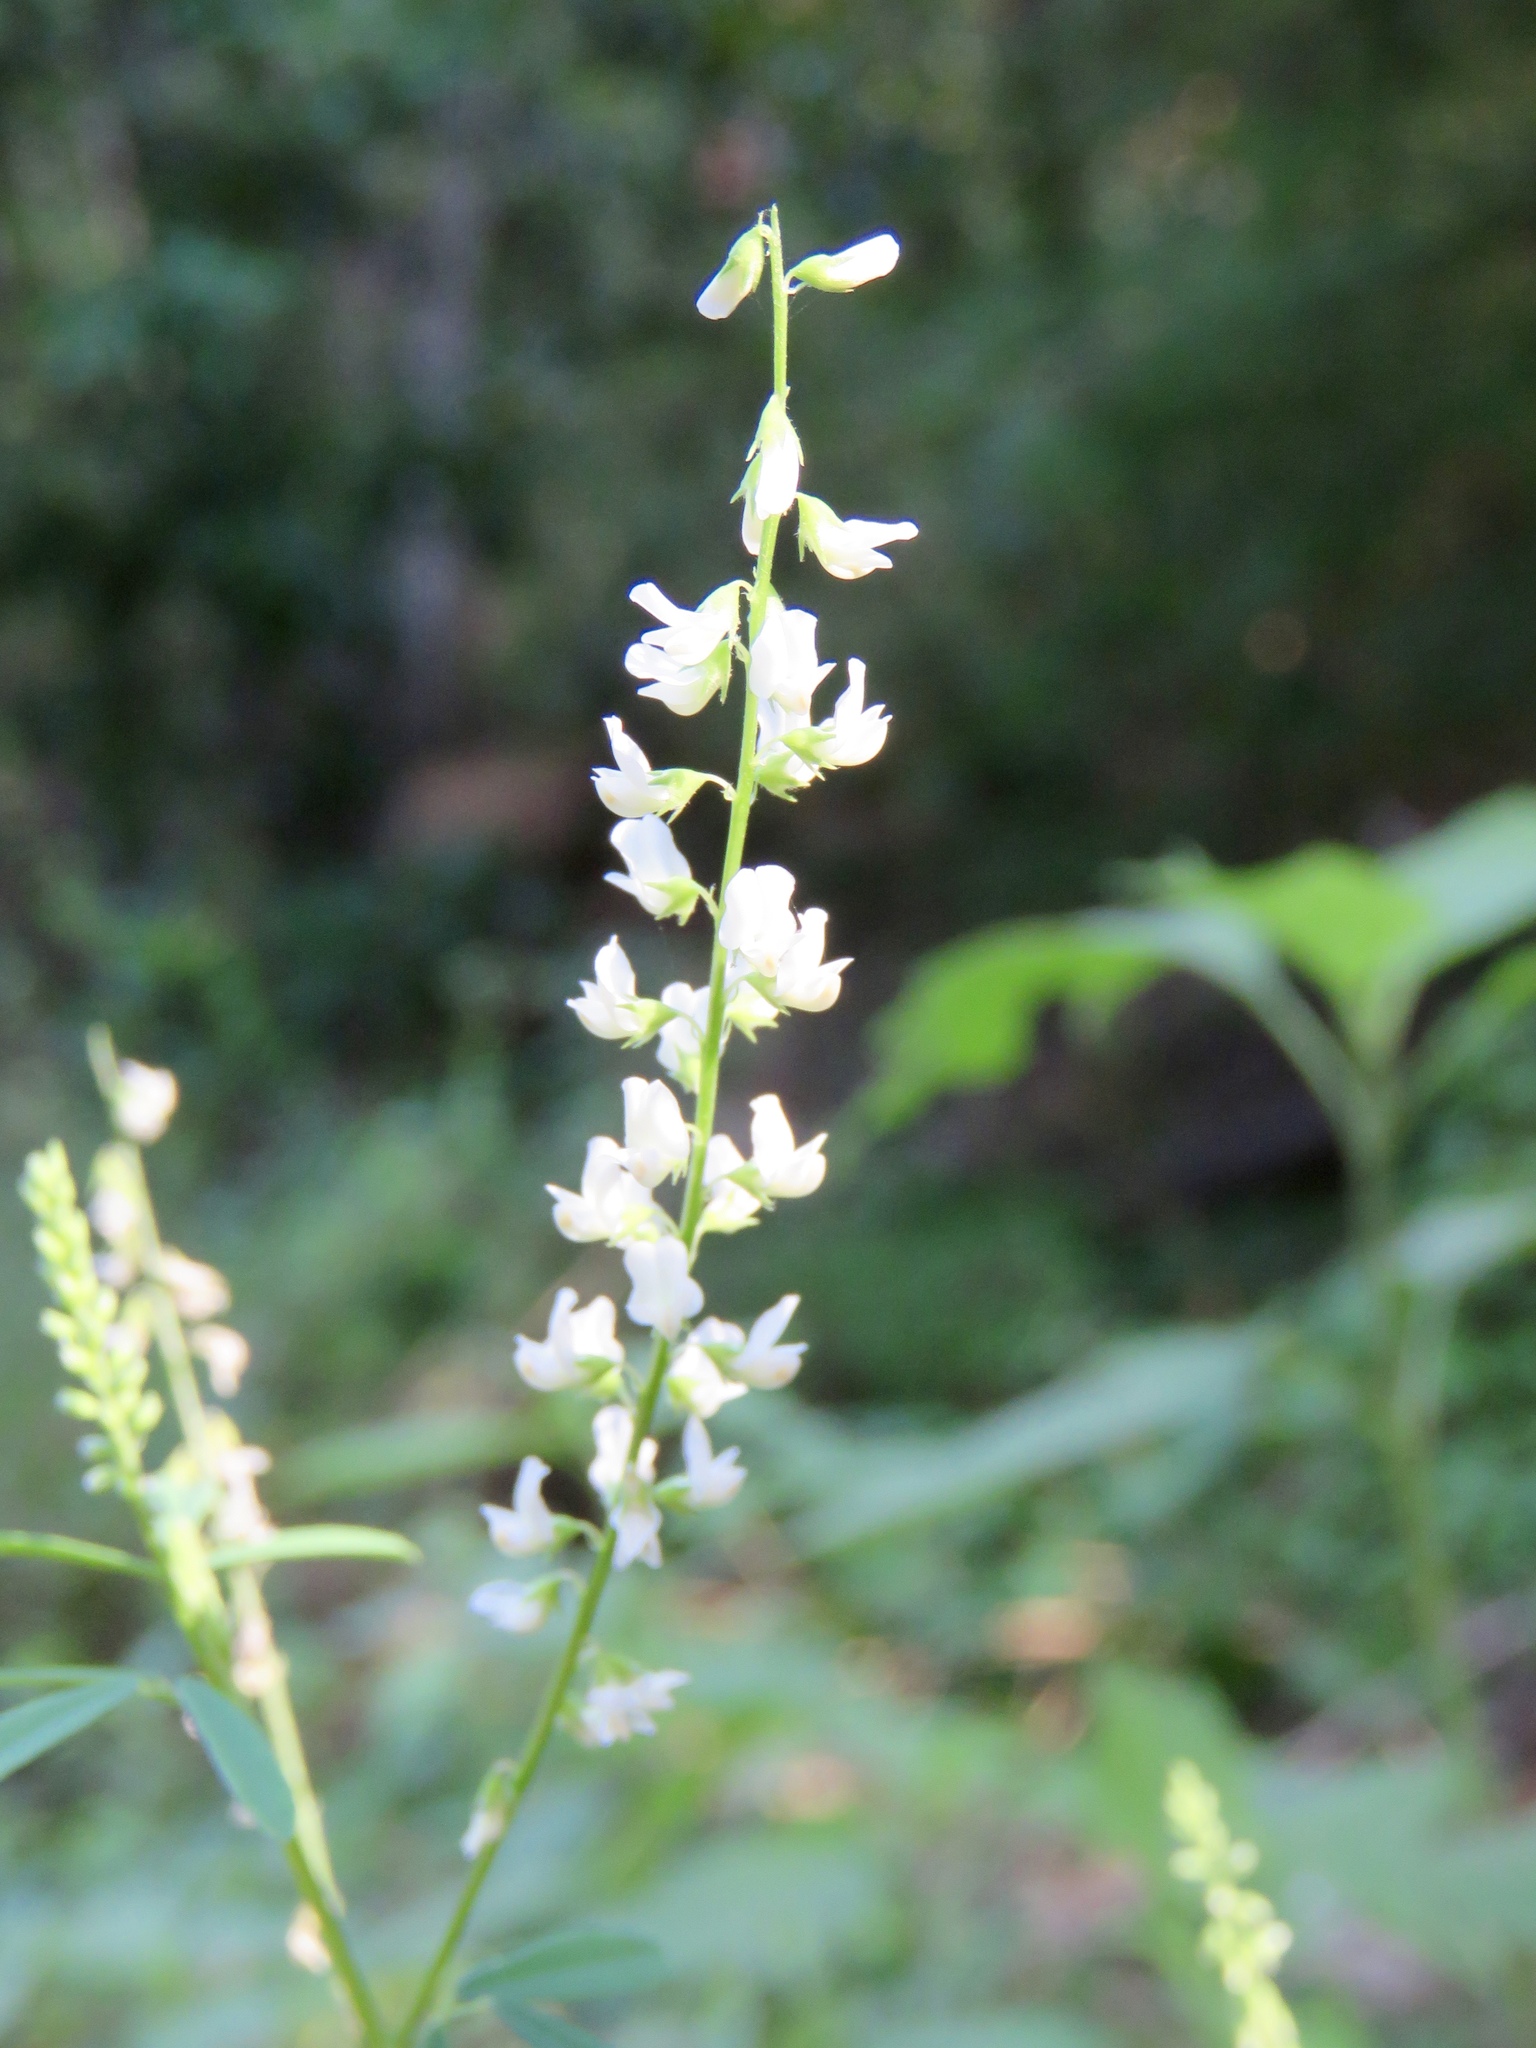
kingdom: Plantae
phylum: Tracheophyta
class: Magnoliopsida
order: Fabales
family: Fabaceae
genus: Melilotus
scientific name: Melilotus albus
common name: White melilot
